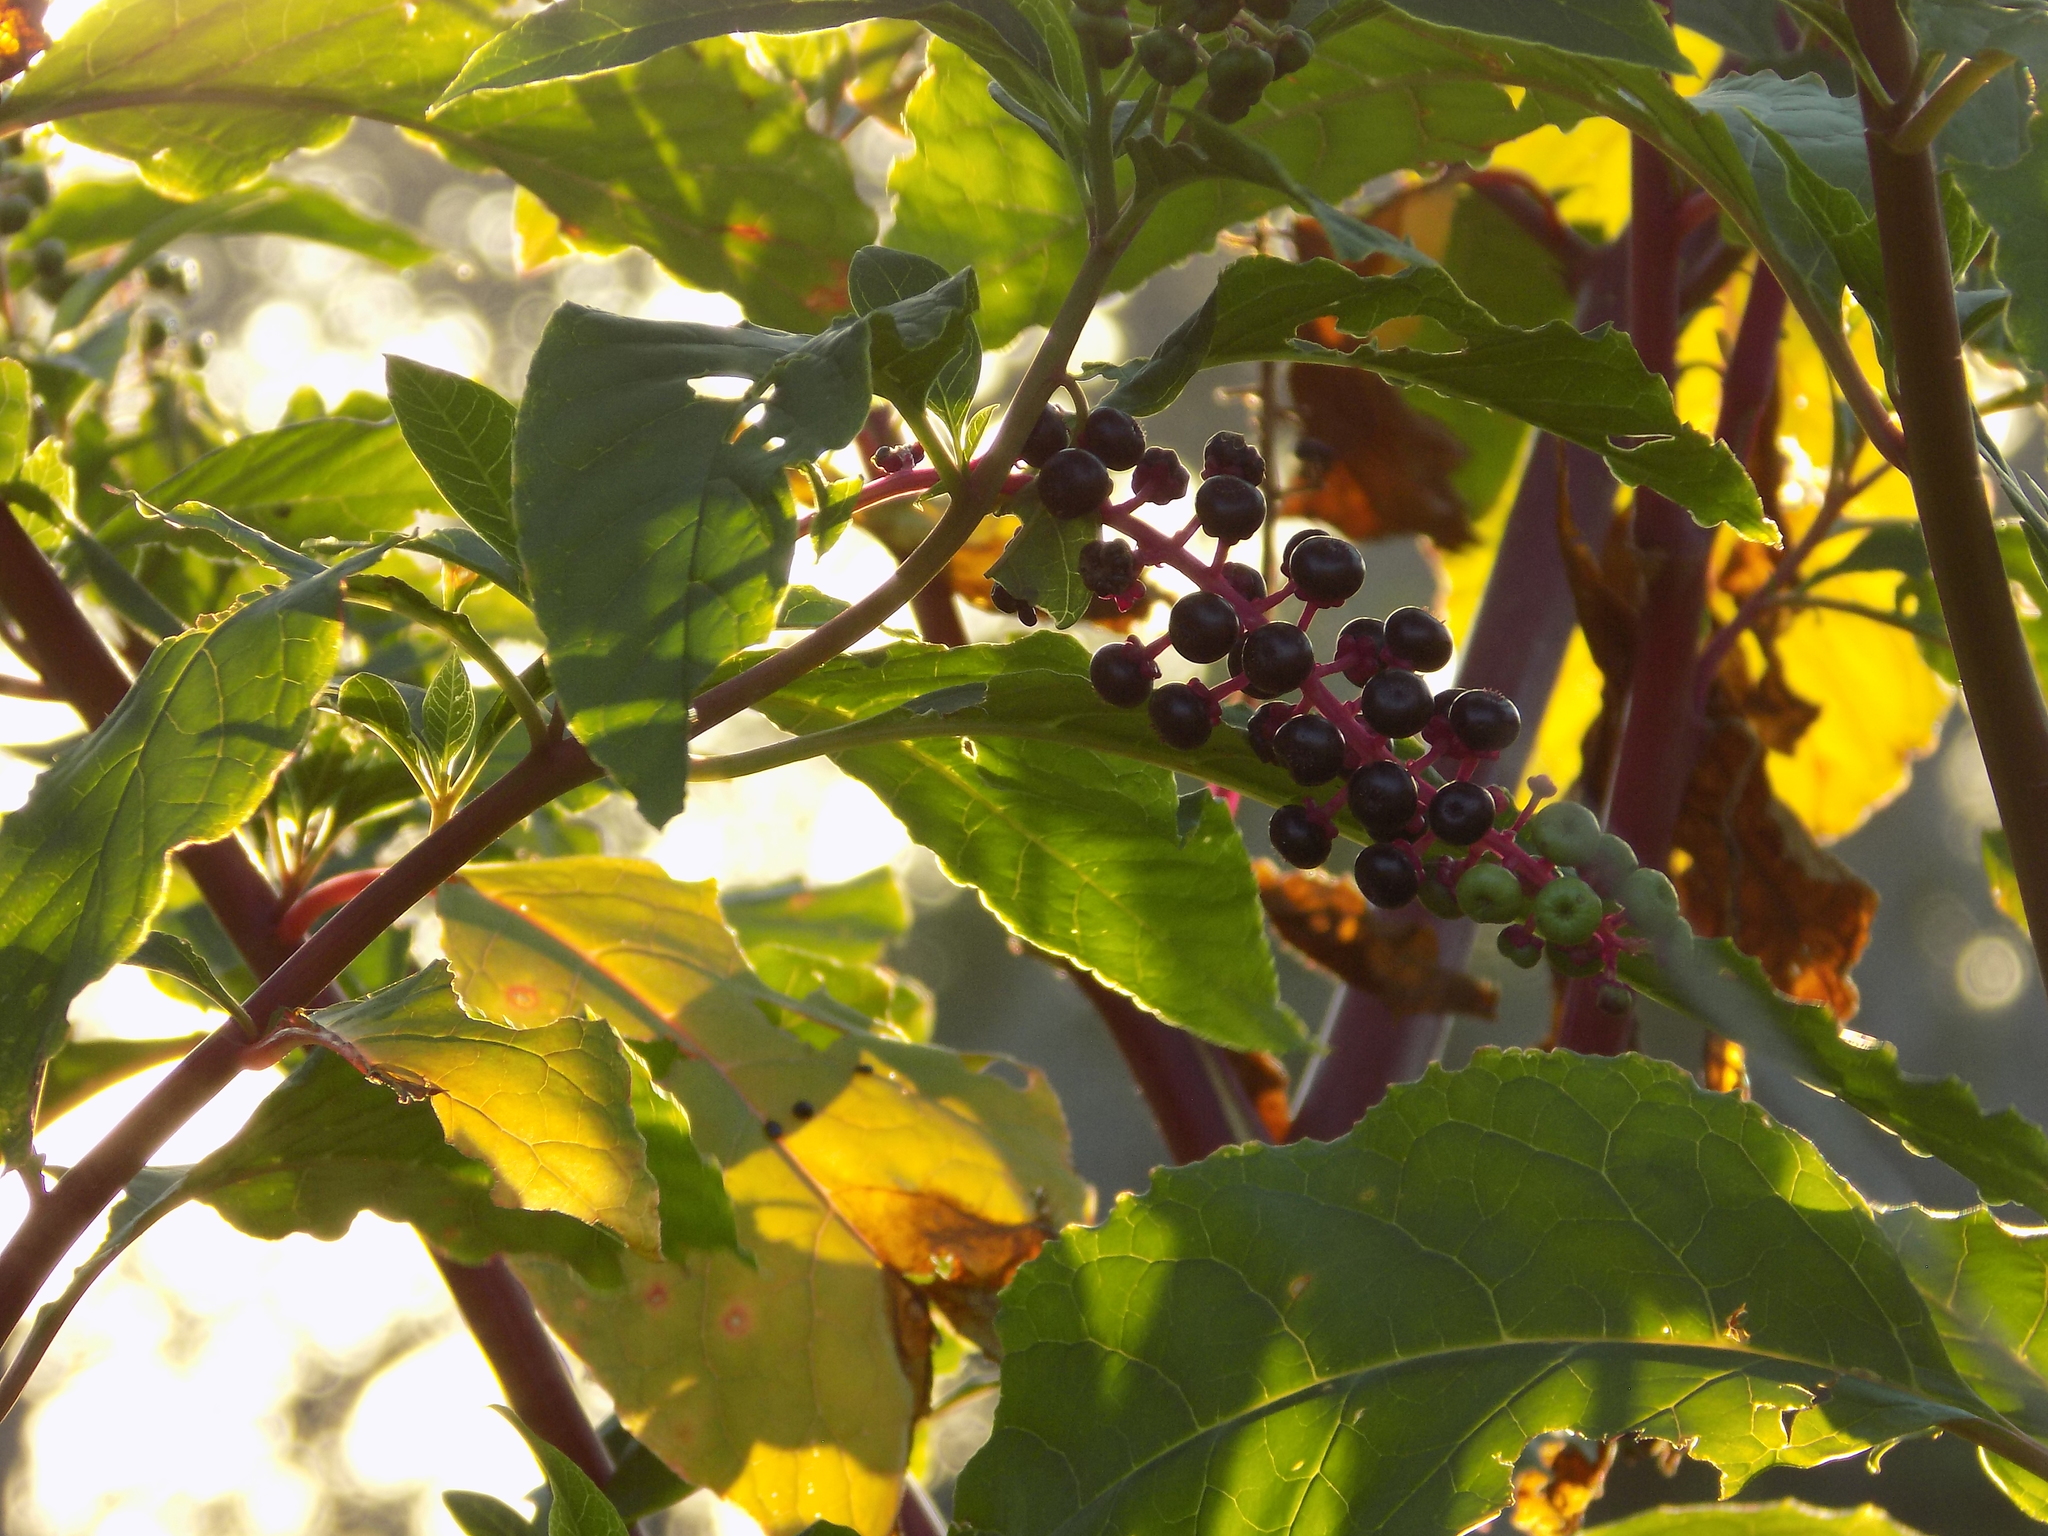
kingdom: Plantae
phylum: Tracheophyta
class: Magnoliopsida
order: Caryophyllales
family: Phytolaccaceae
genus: Phytolacca
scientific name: Phytolacca americana
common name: American pokeweed
